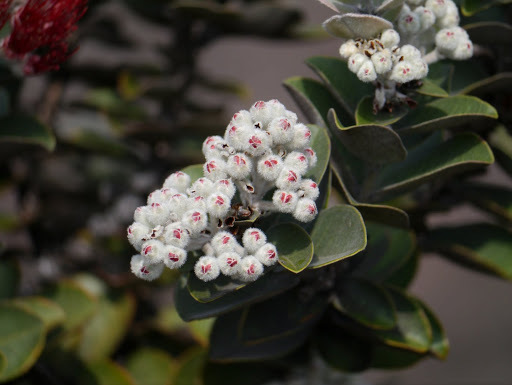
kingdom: Plantae
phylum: Tracheophyta
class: Magnoliopsida
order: Myrtales
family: Myrtaceae
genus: Metrosideros
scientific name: Metrosideros polymorpha
